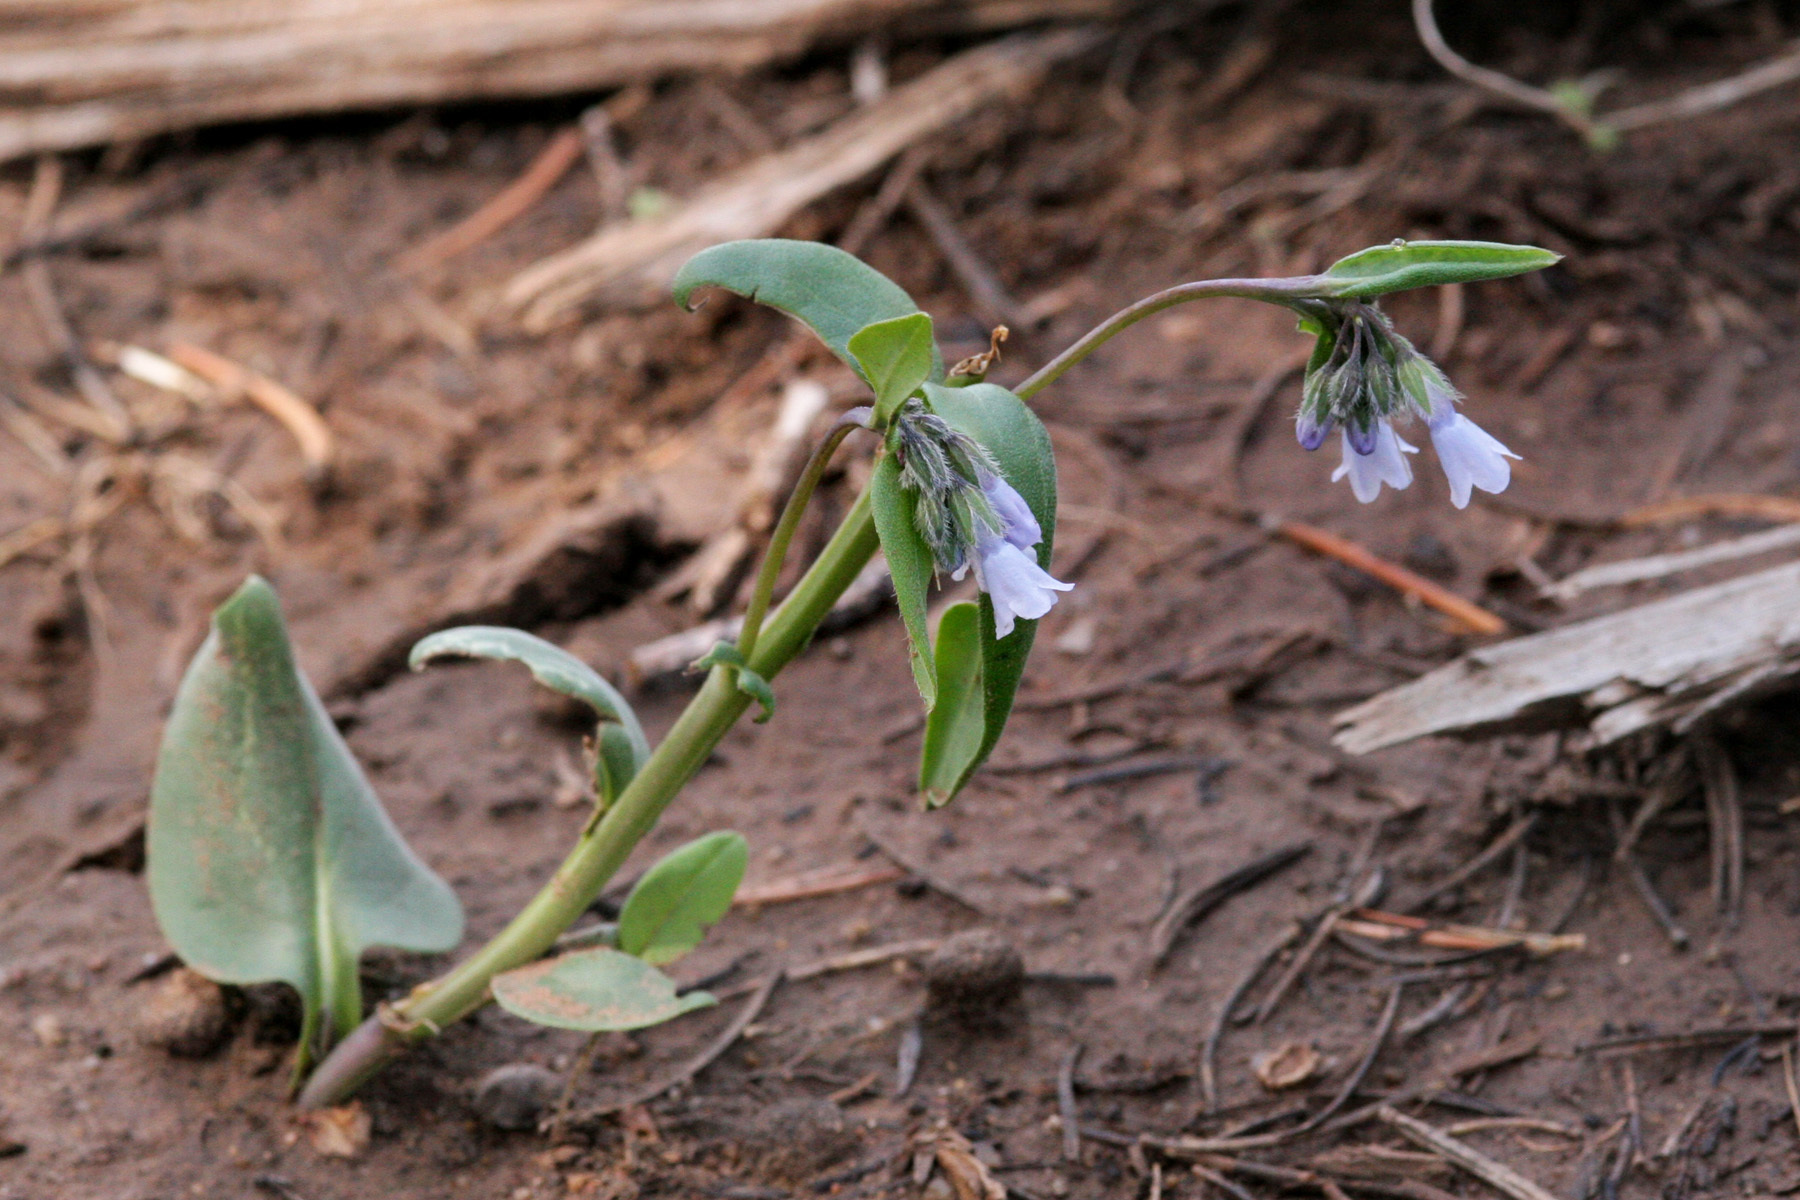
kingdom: Plantae
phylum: Tracheophyta
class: Magnoliopsida
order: Boraginales
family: Boraginaceae
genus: Mertensia
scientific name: Mertensia ovata
